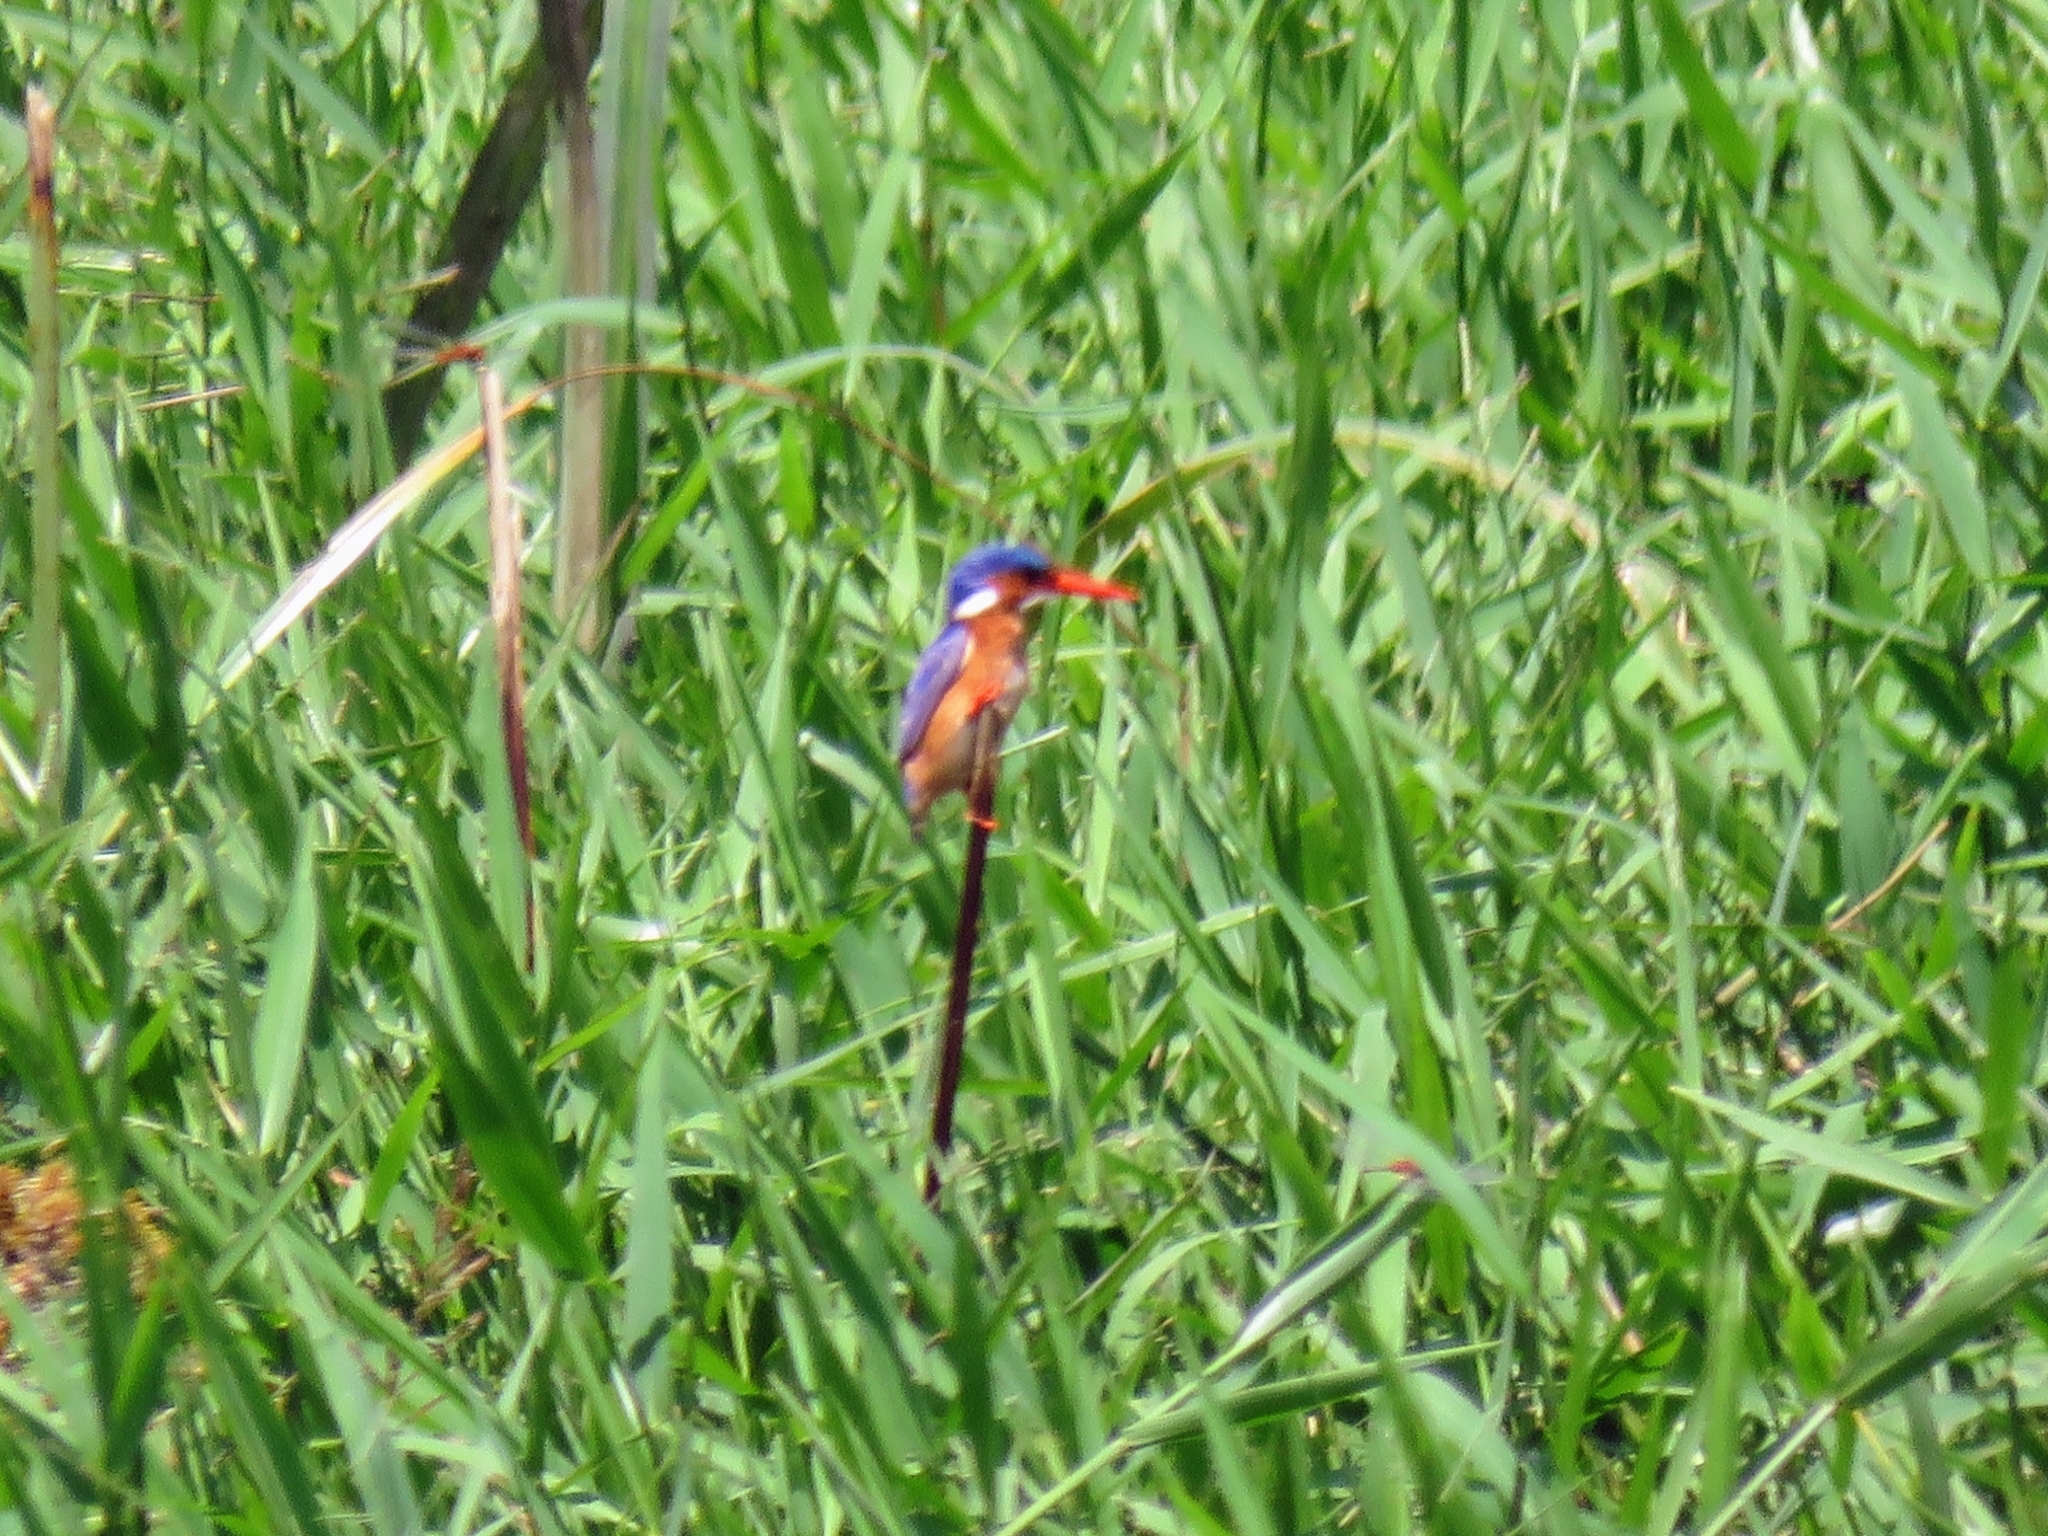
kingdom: Animalia
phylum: Chordata
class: Aves
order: Coraciiformes
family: Alcedinidae
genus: Corythornis
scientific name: Corythornis cristatus
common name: Malachite kingfisher
